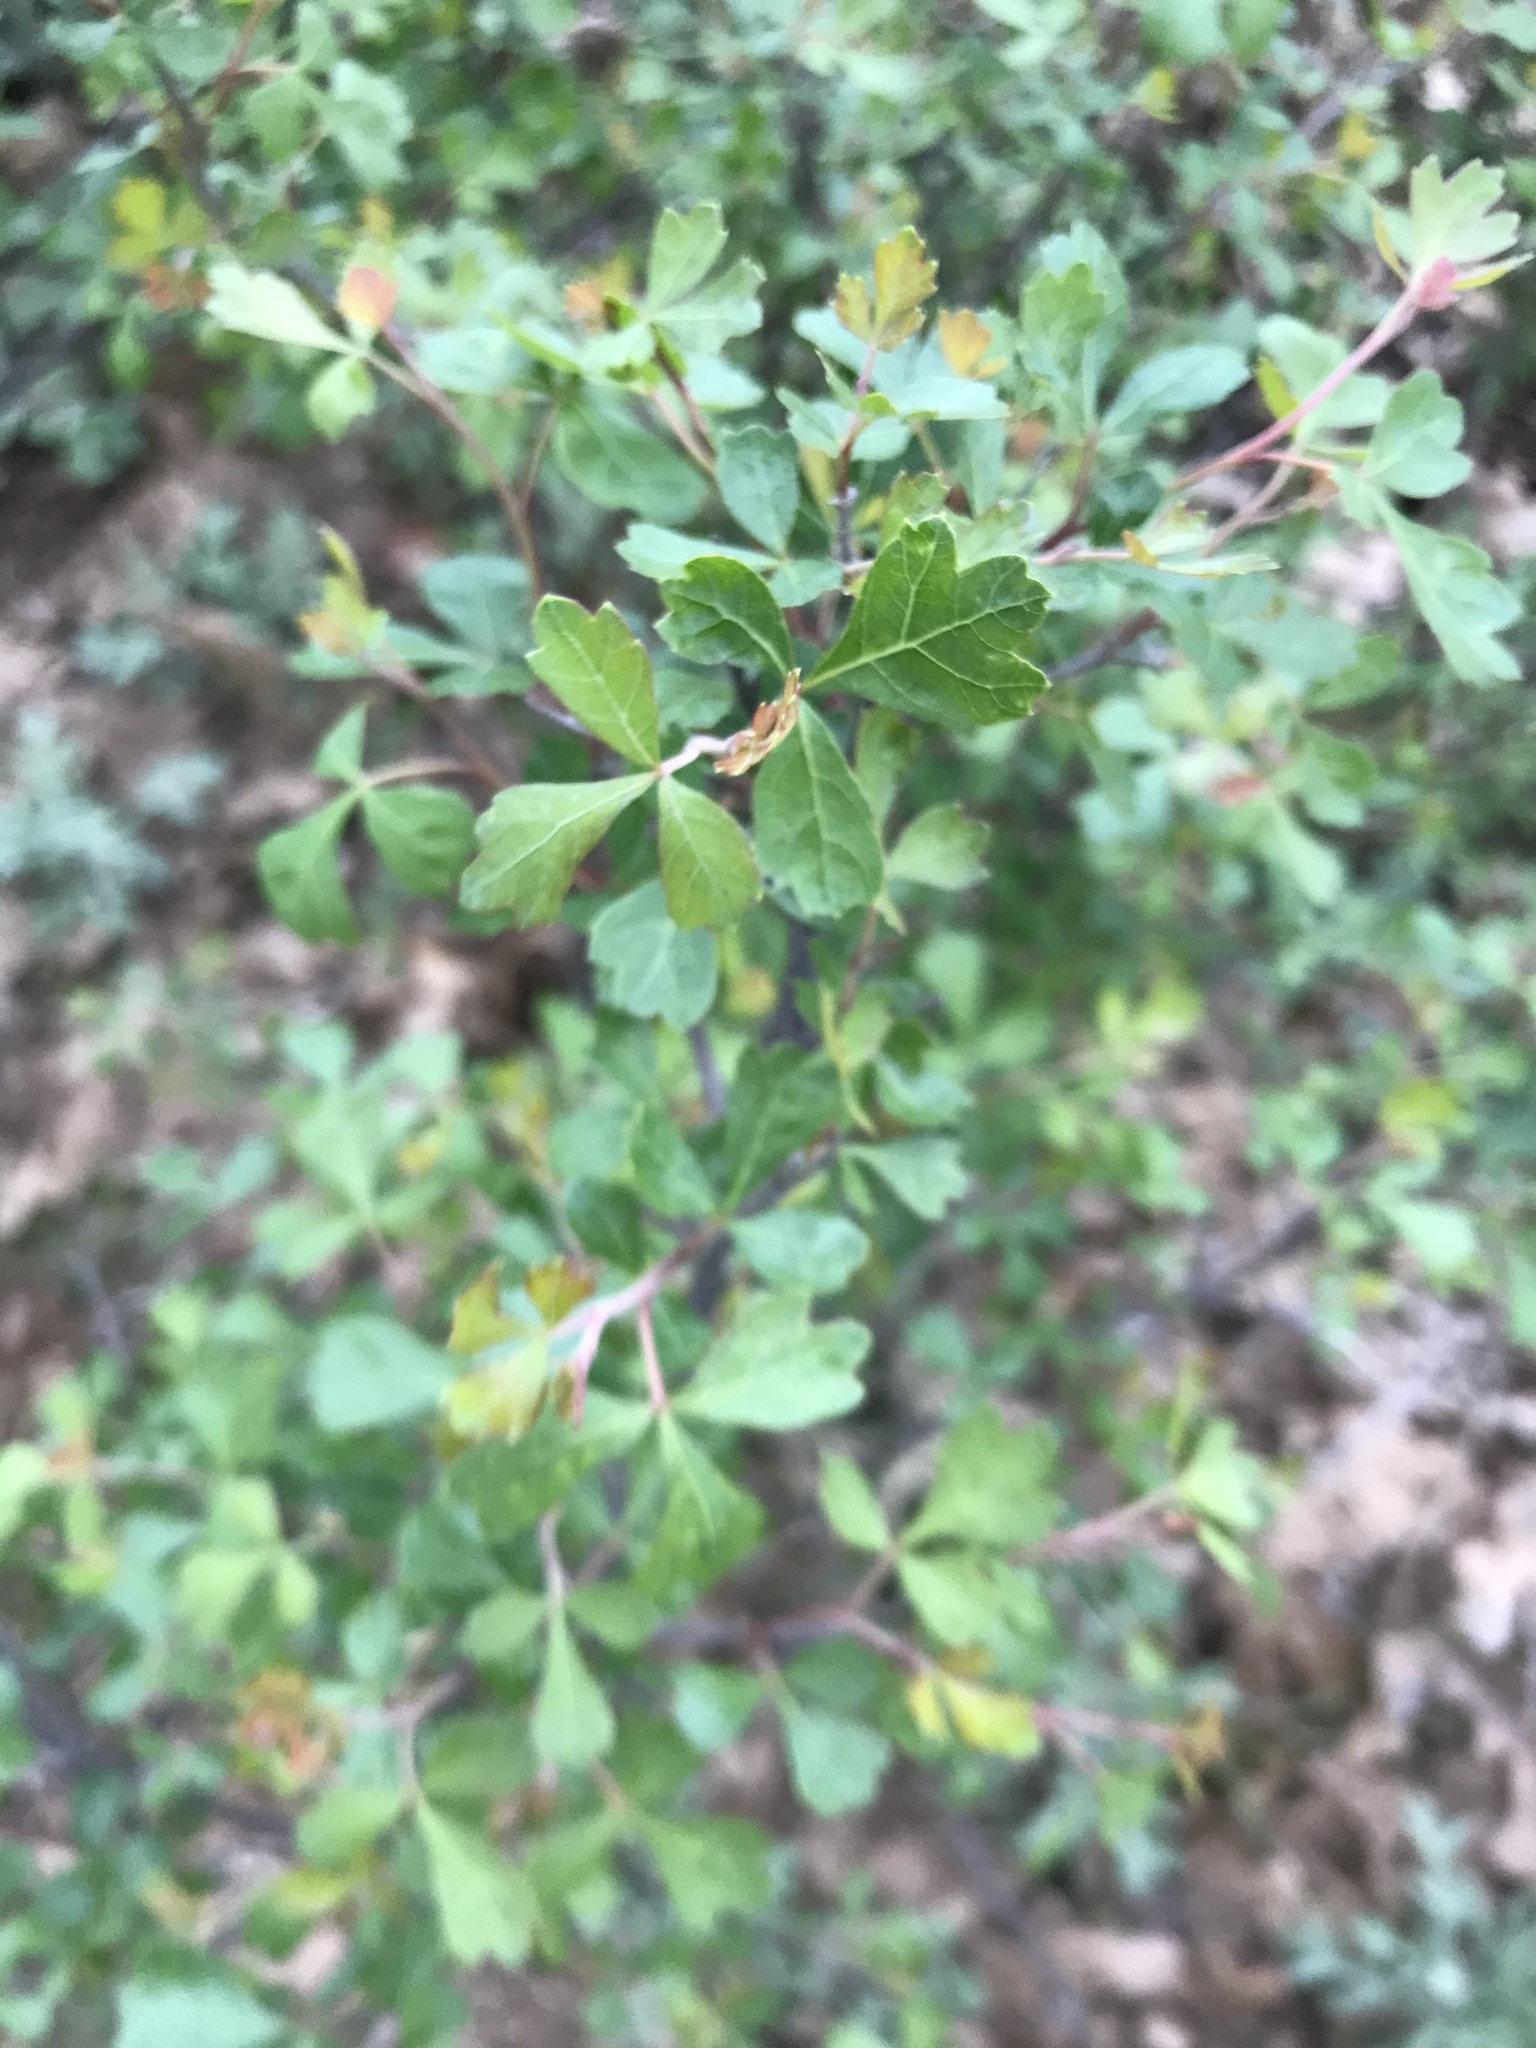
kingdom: Plantae
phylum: Tracheophyta
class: Magnoliopsida
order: Sapindales
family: Anacardiaceae
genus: Rhus
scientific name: Rhus aromatica
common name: Aromatic sumac
